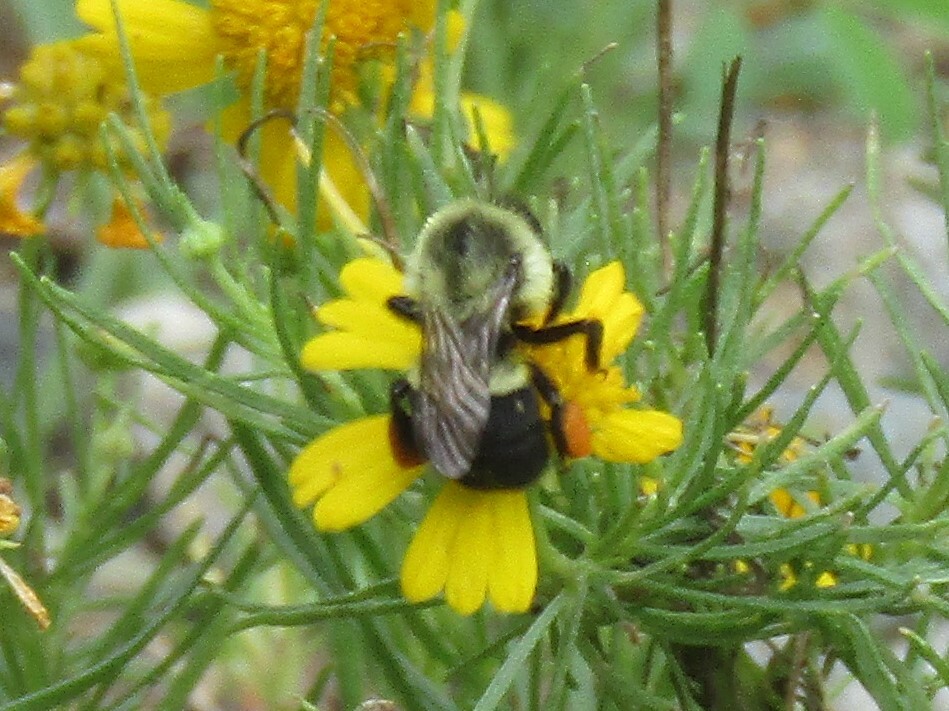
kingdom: Animalia
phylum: Arthropoda
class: Insecta
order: Hymenoptera
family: Apidae
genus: Bombus
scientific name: Bombus impatiens
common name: Common eastern bumble bee
